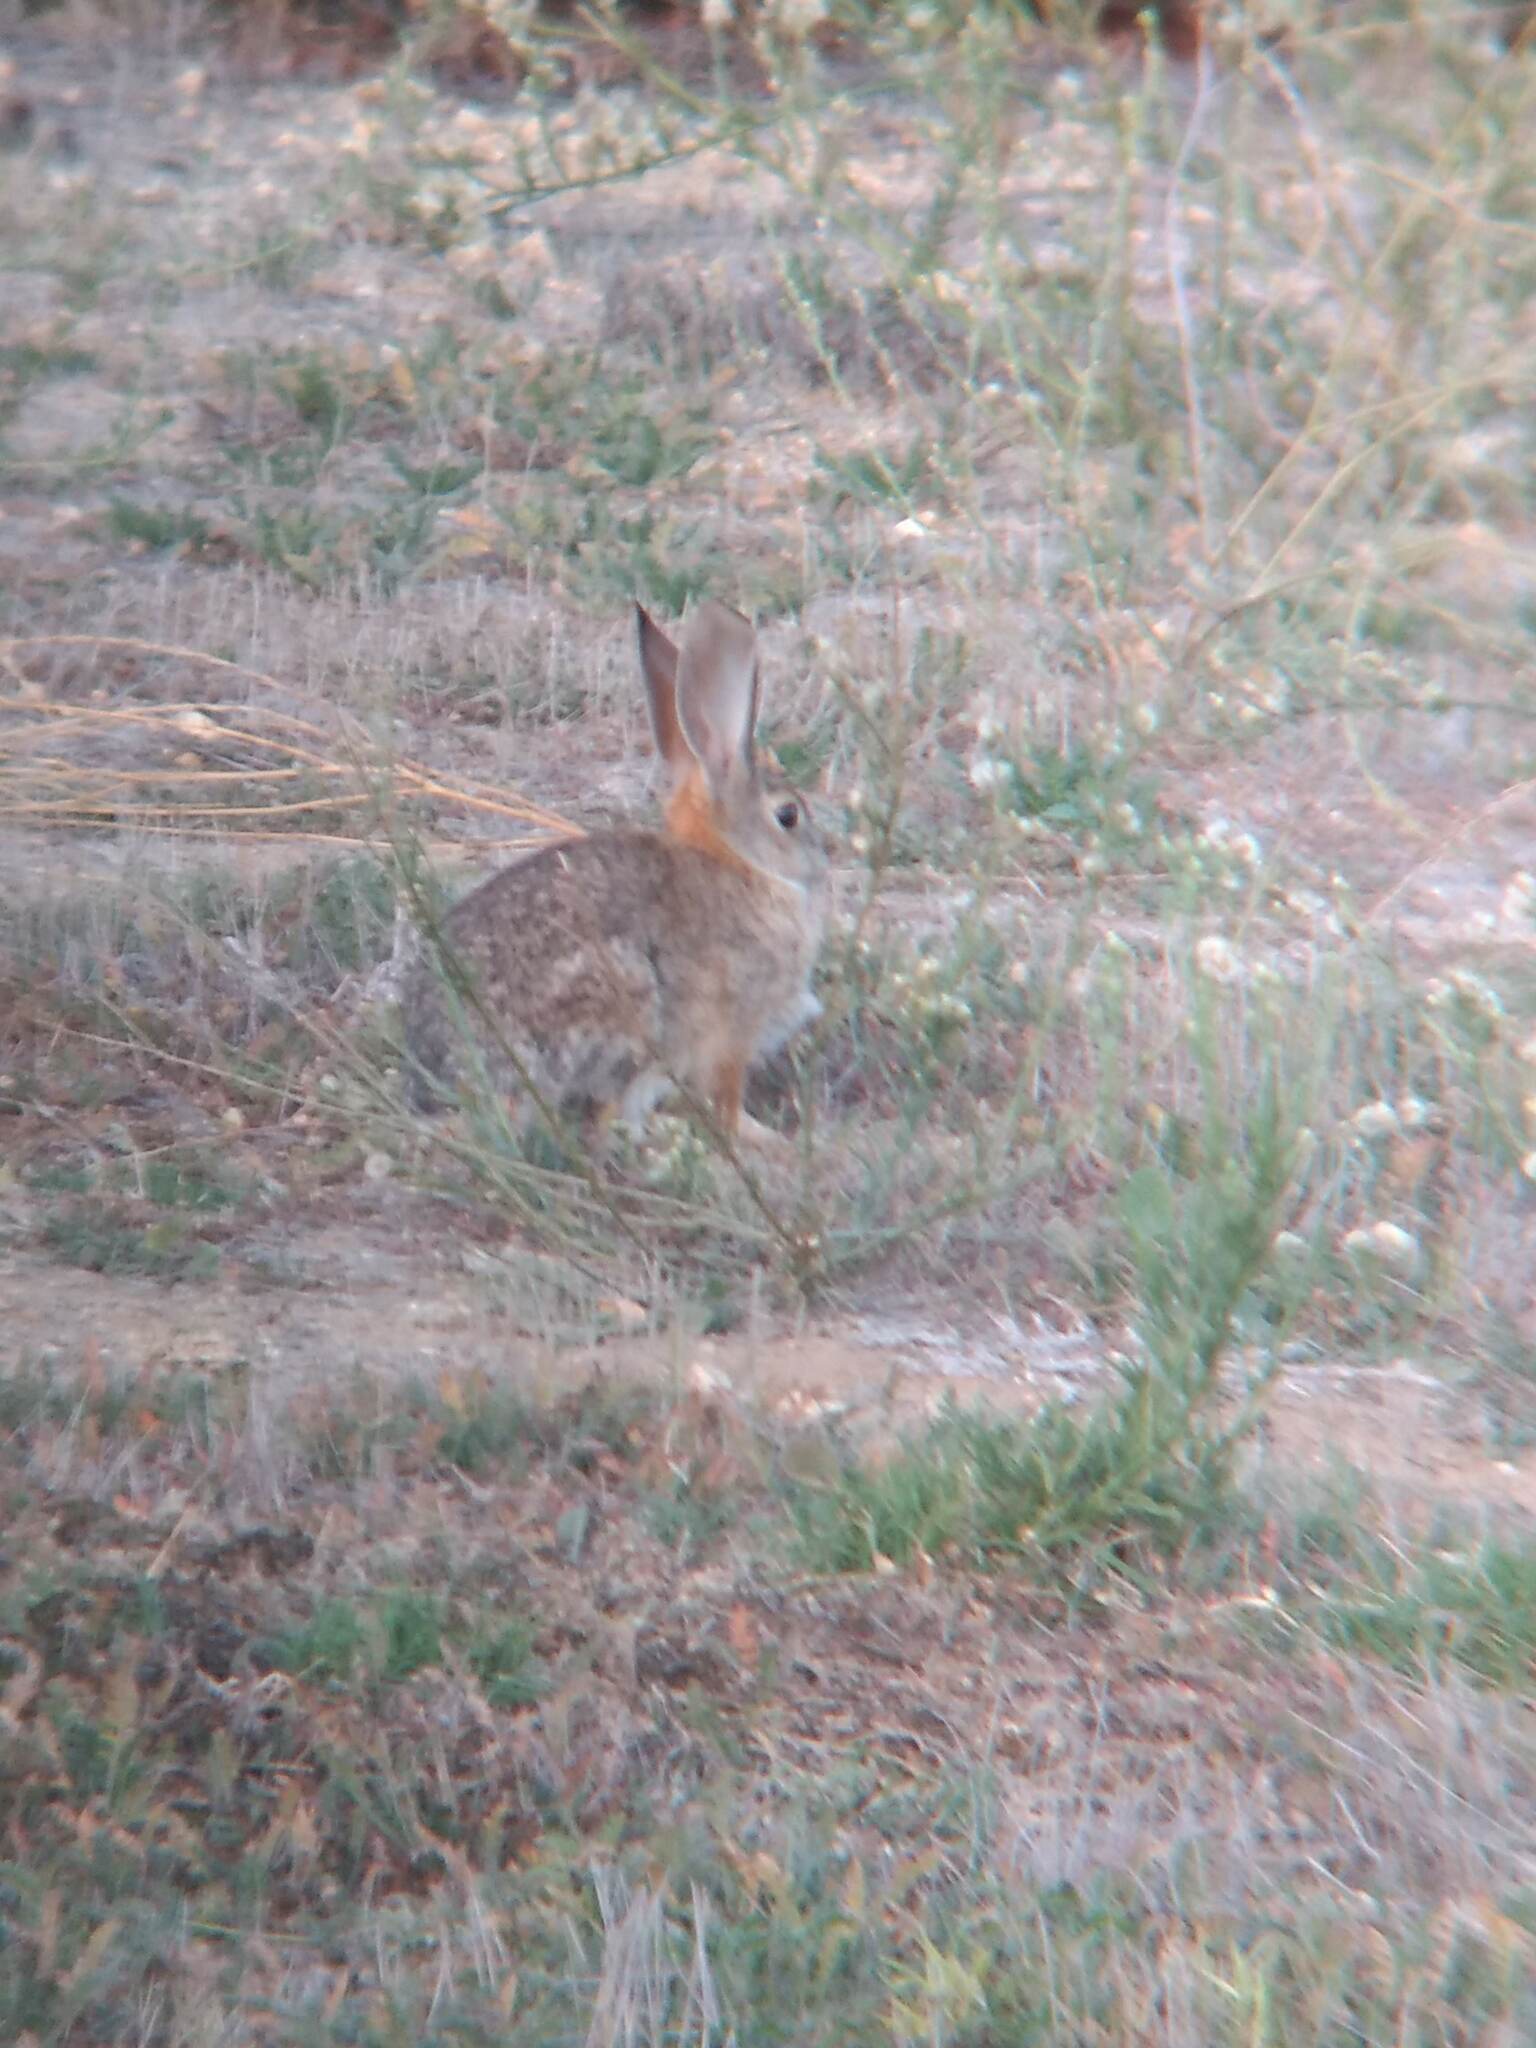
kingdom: Animalia
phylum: Chordata
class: Mammalia
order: Lagomorpha
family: Leporidae
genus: Sylvilagus
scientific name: Sylvilagus audubonii
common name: Desert cottontail
